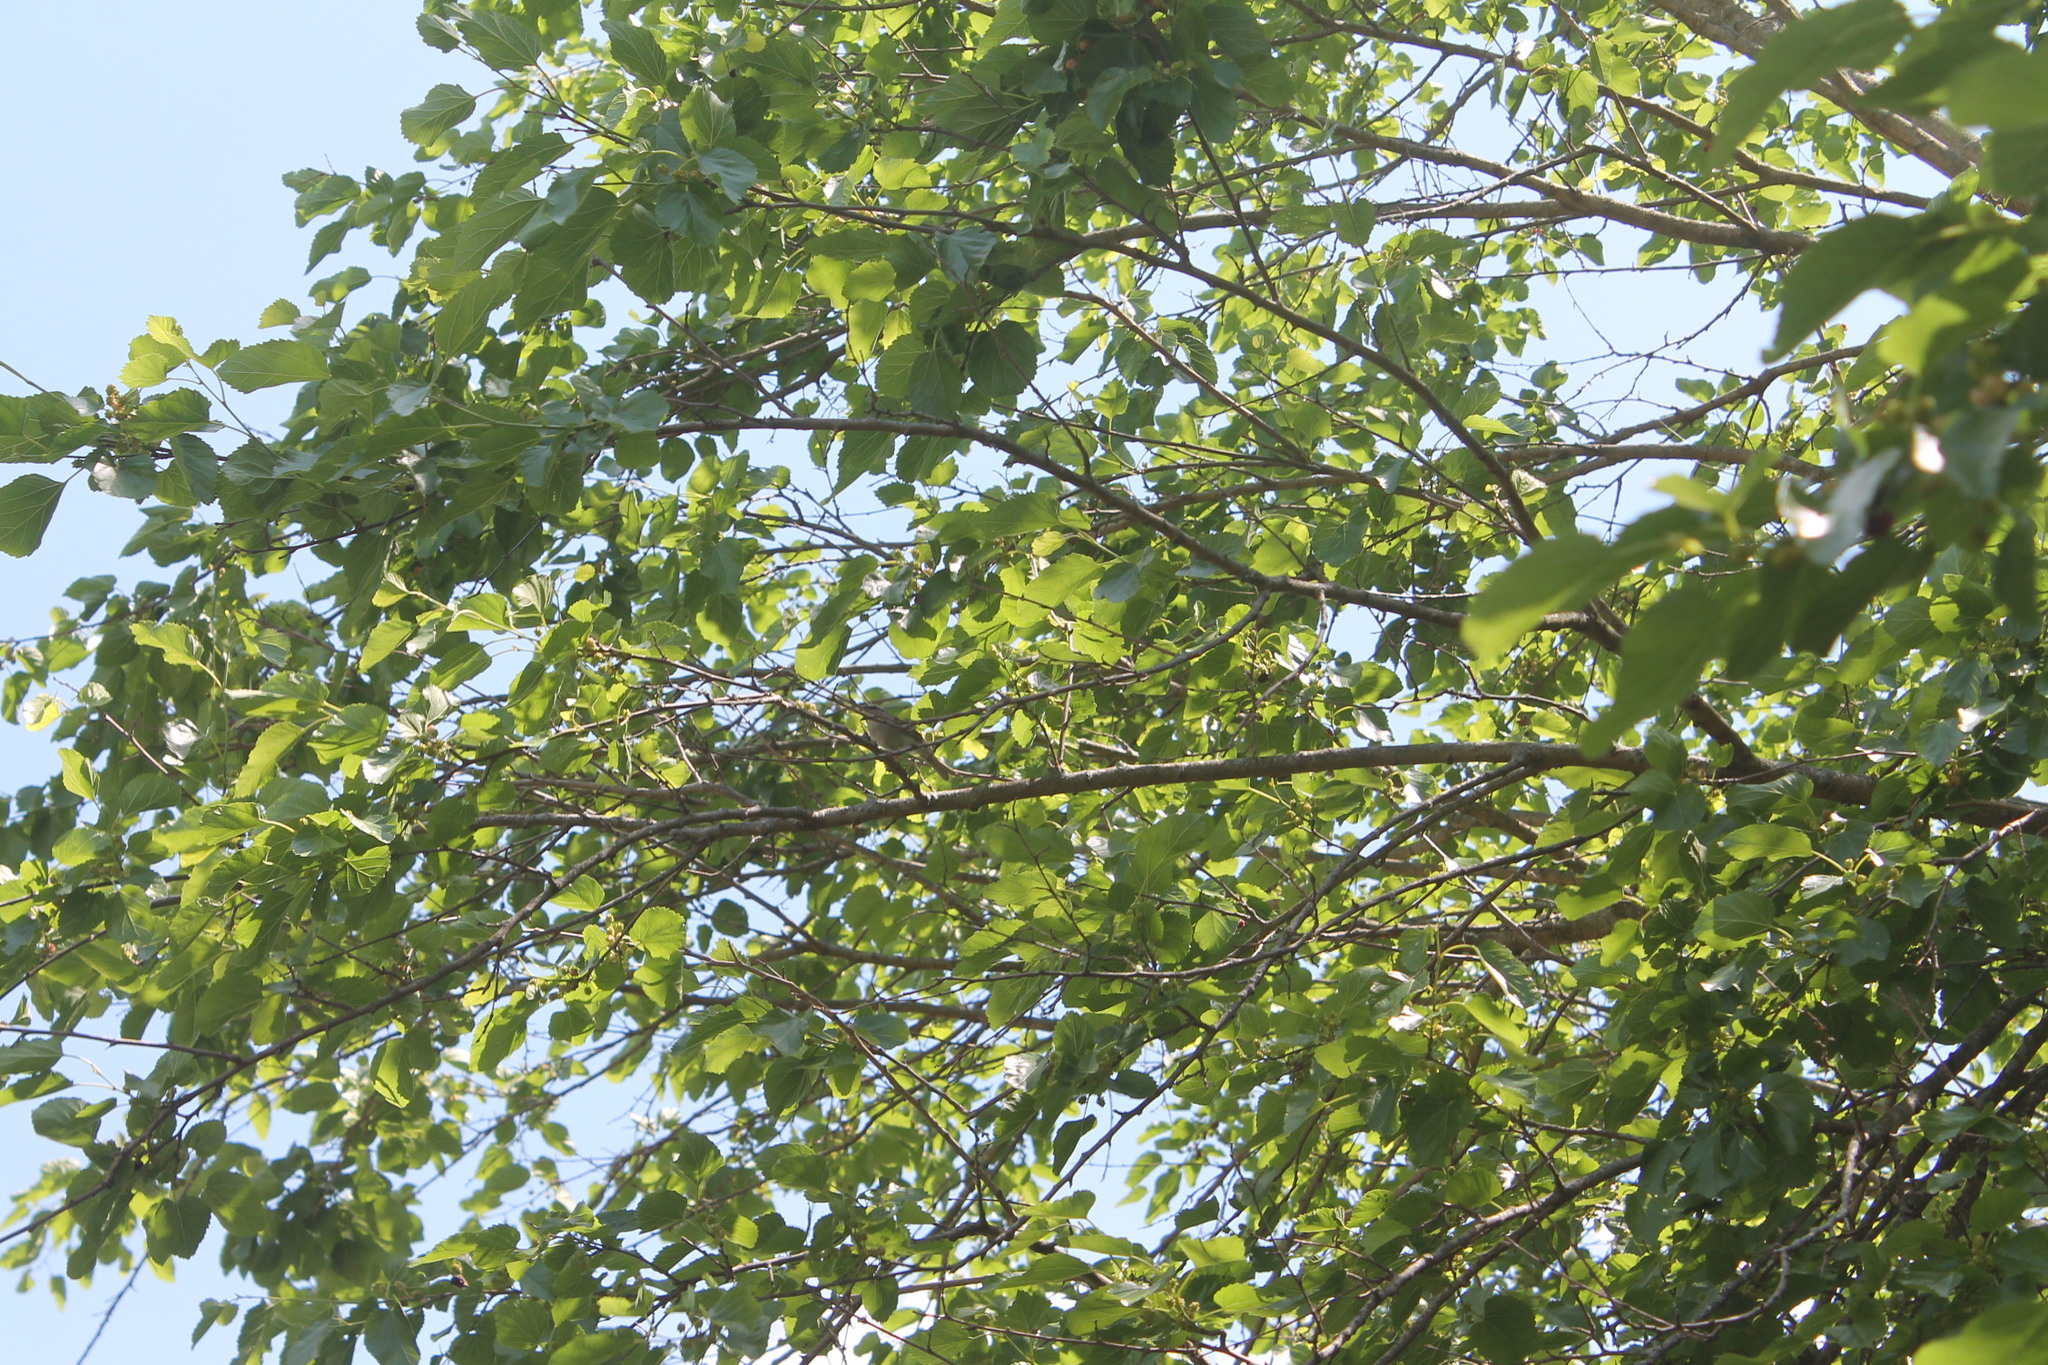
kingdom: Animalia
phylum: Chordata
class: Aves
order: Passeriformes
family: Passerellidae
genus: Spizella
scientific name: Spizella passerina
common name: Chipping sparrow
